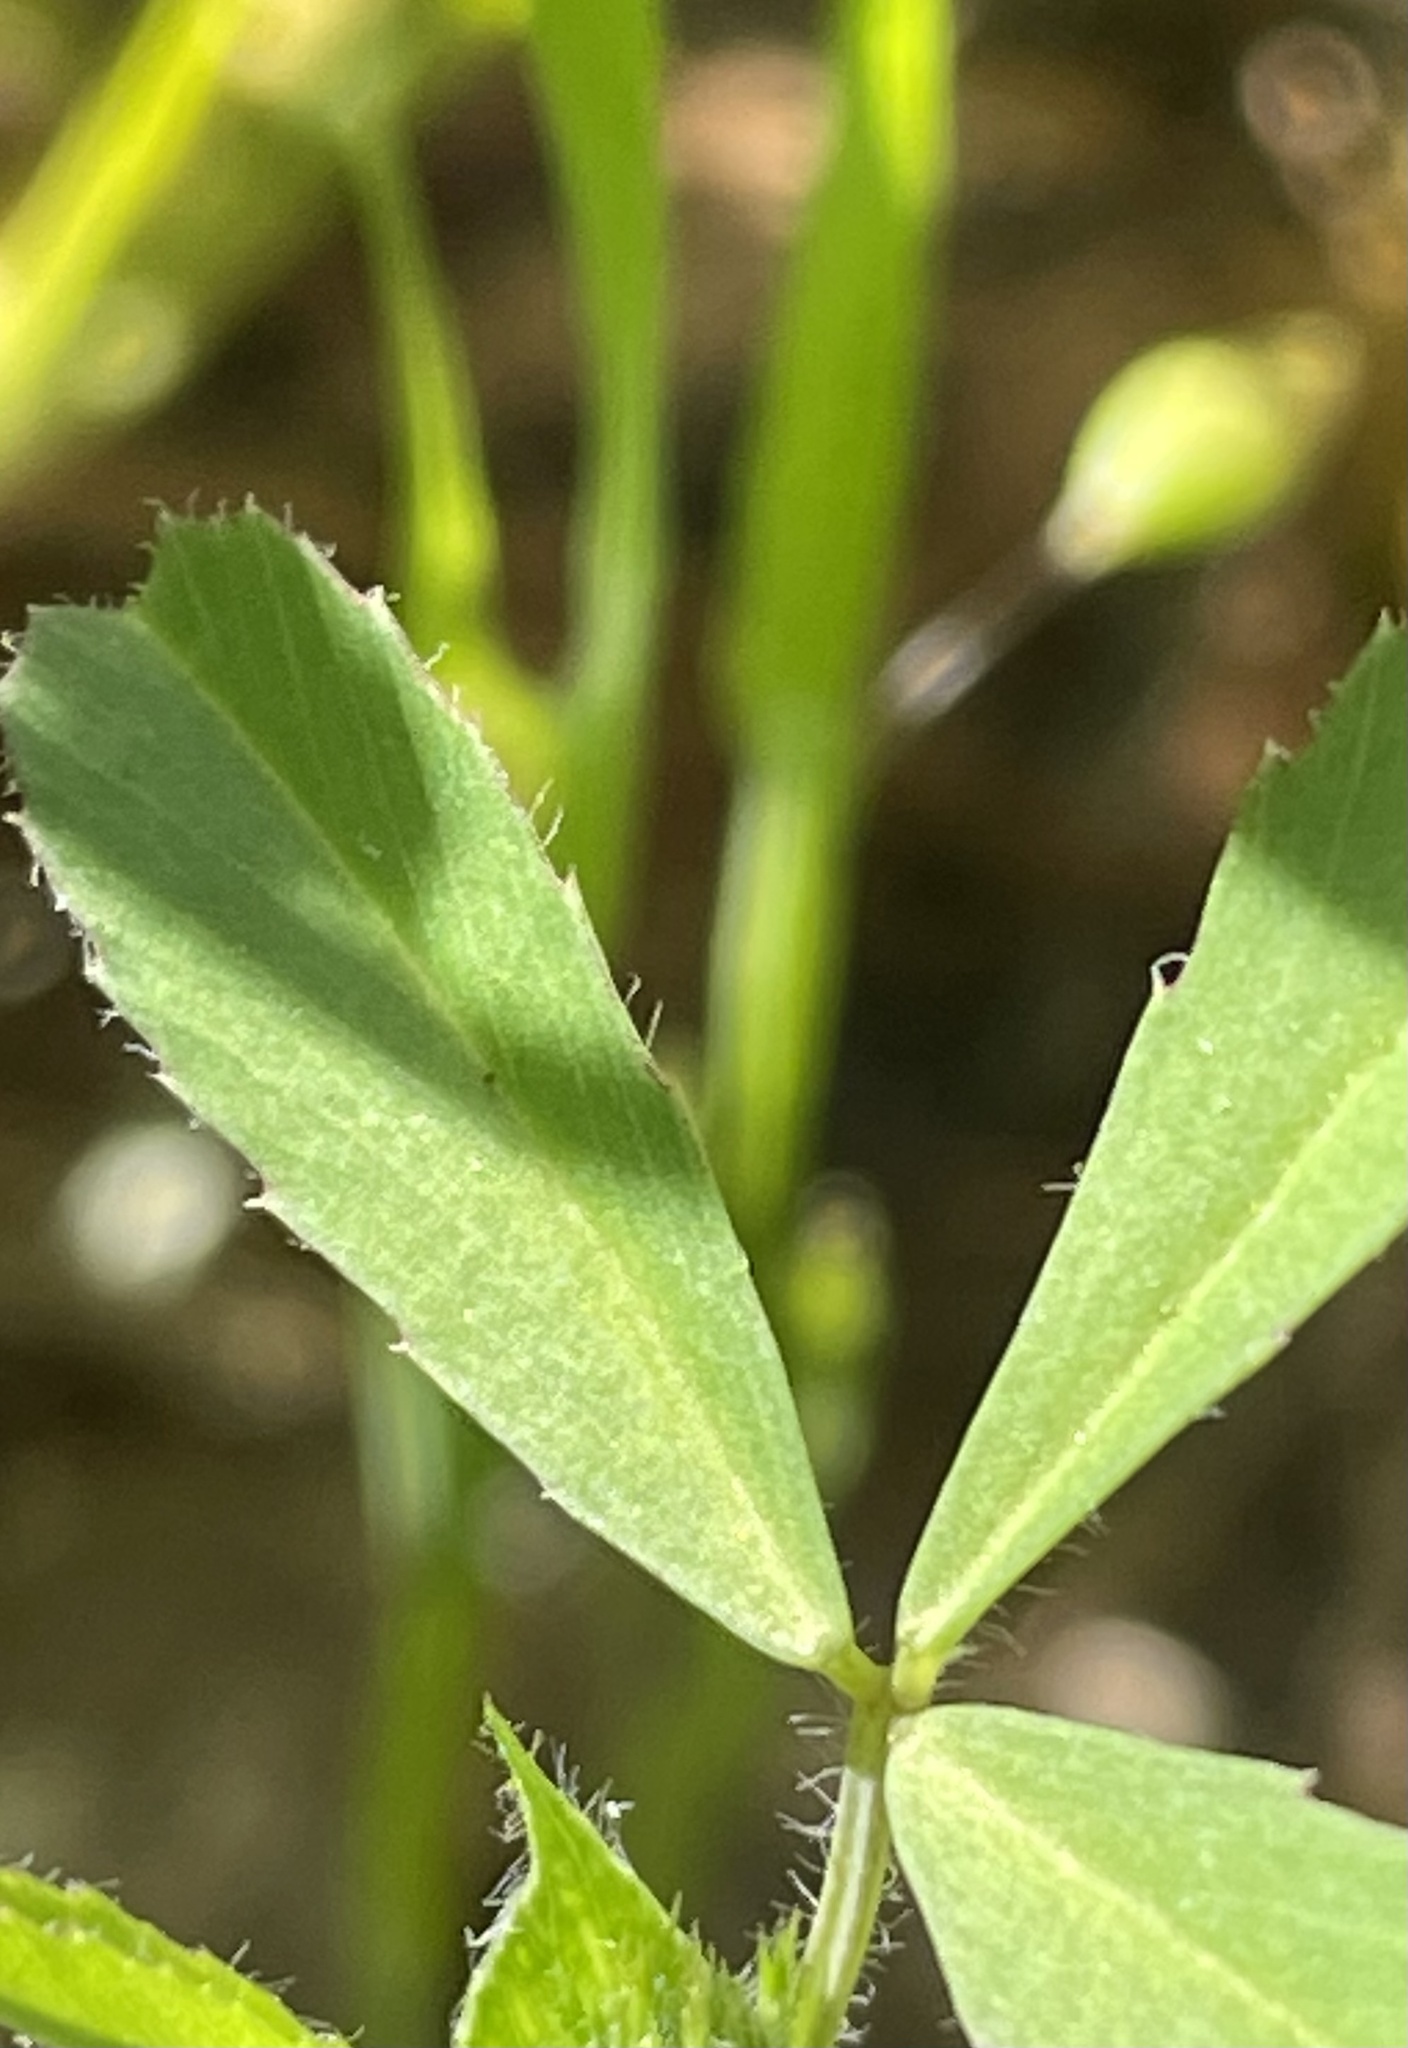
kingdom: Plantae
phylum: Tracheophyta
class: Magnoliopsida
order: Fabales
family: Fabaceae
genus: Trifolium
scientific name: Trifolium bifidum
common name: Notch-leaf clover
